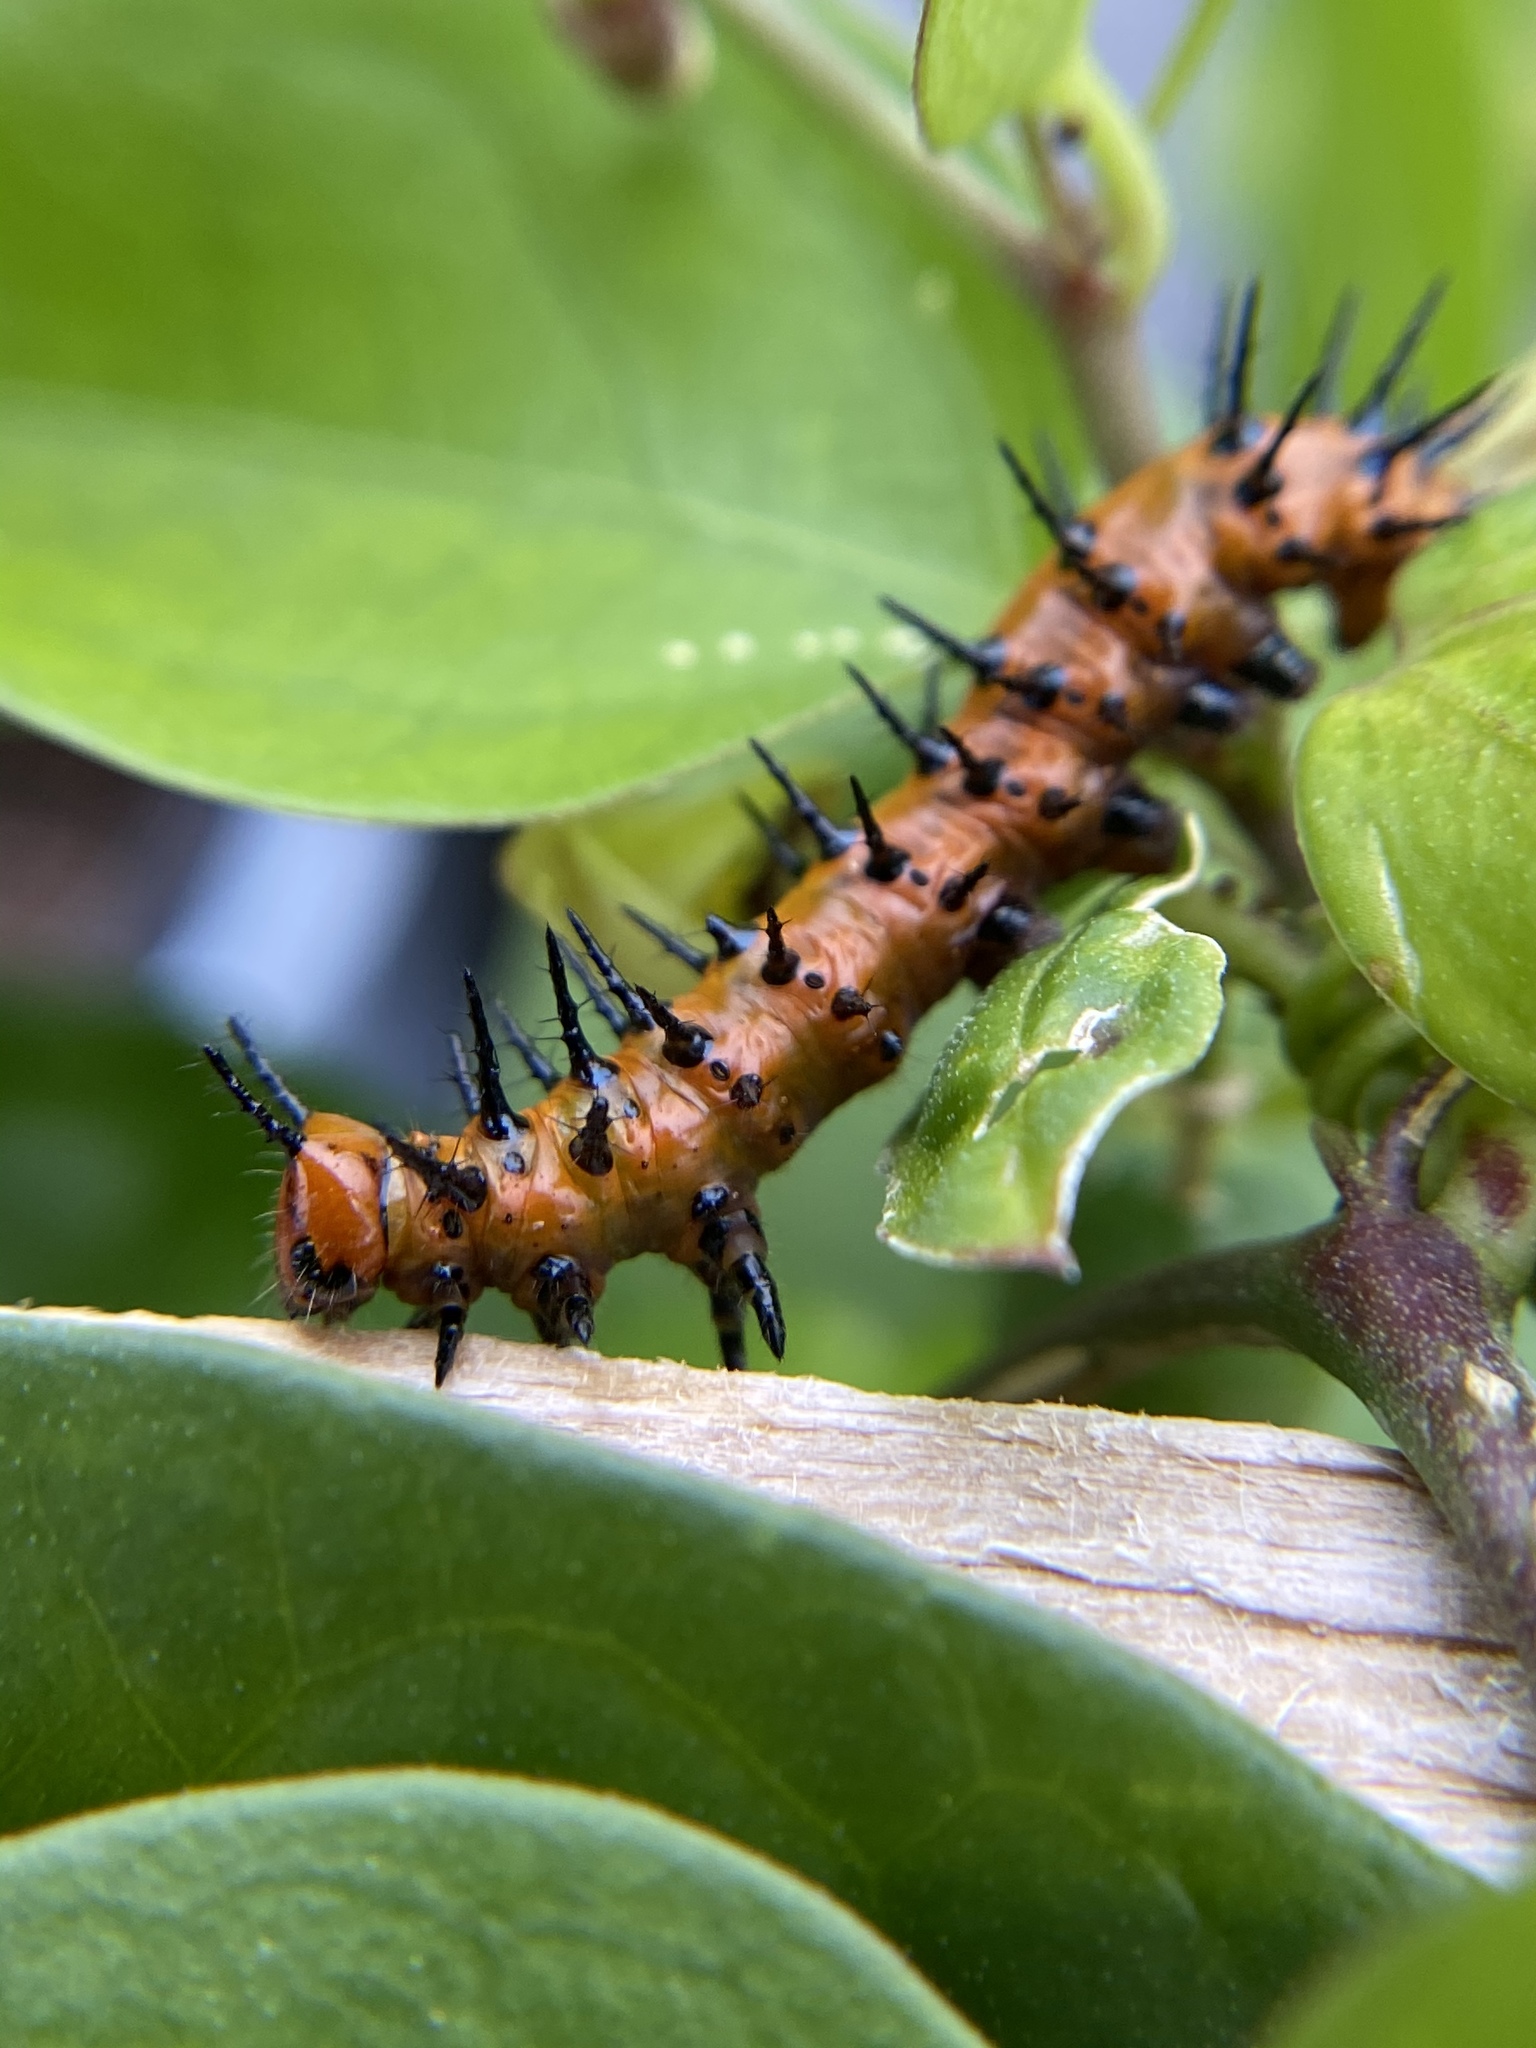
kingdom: Animalia
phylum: Arthropoda
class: Insecta
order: Lepidoptera
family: Nymphalidae
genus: Dione
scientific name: Dione vanillae
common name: Gulf fritillary
